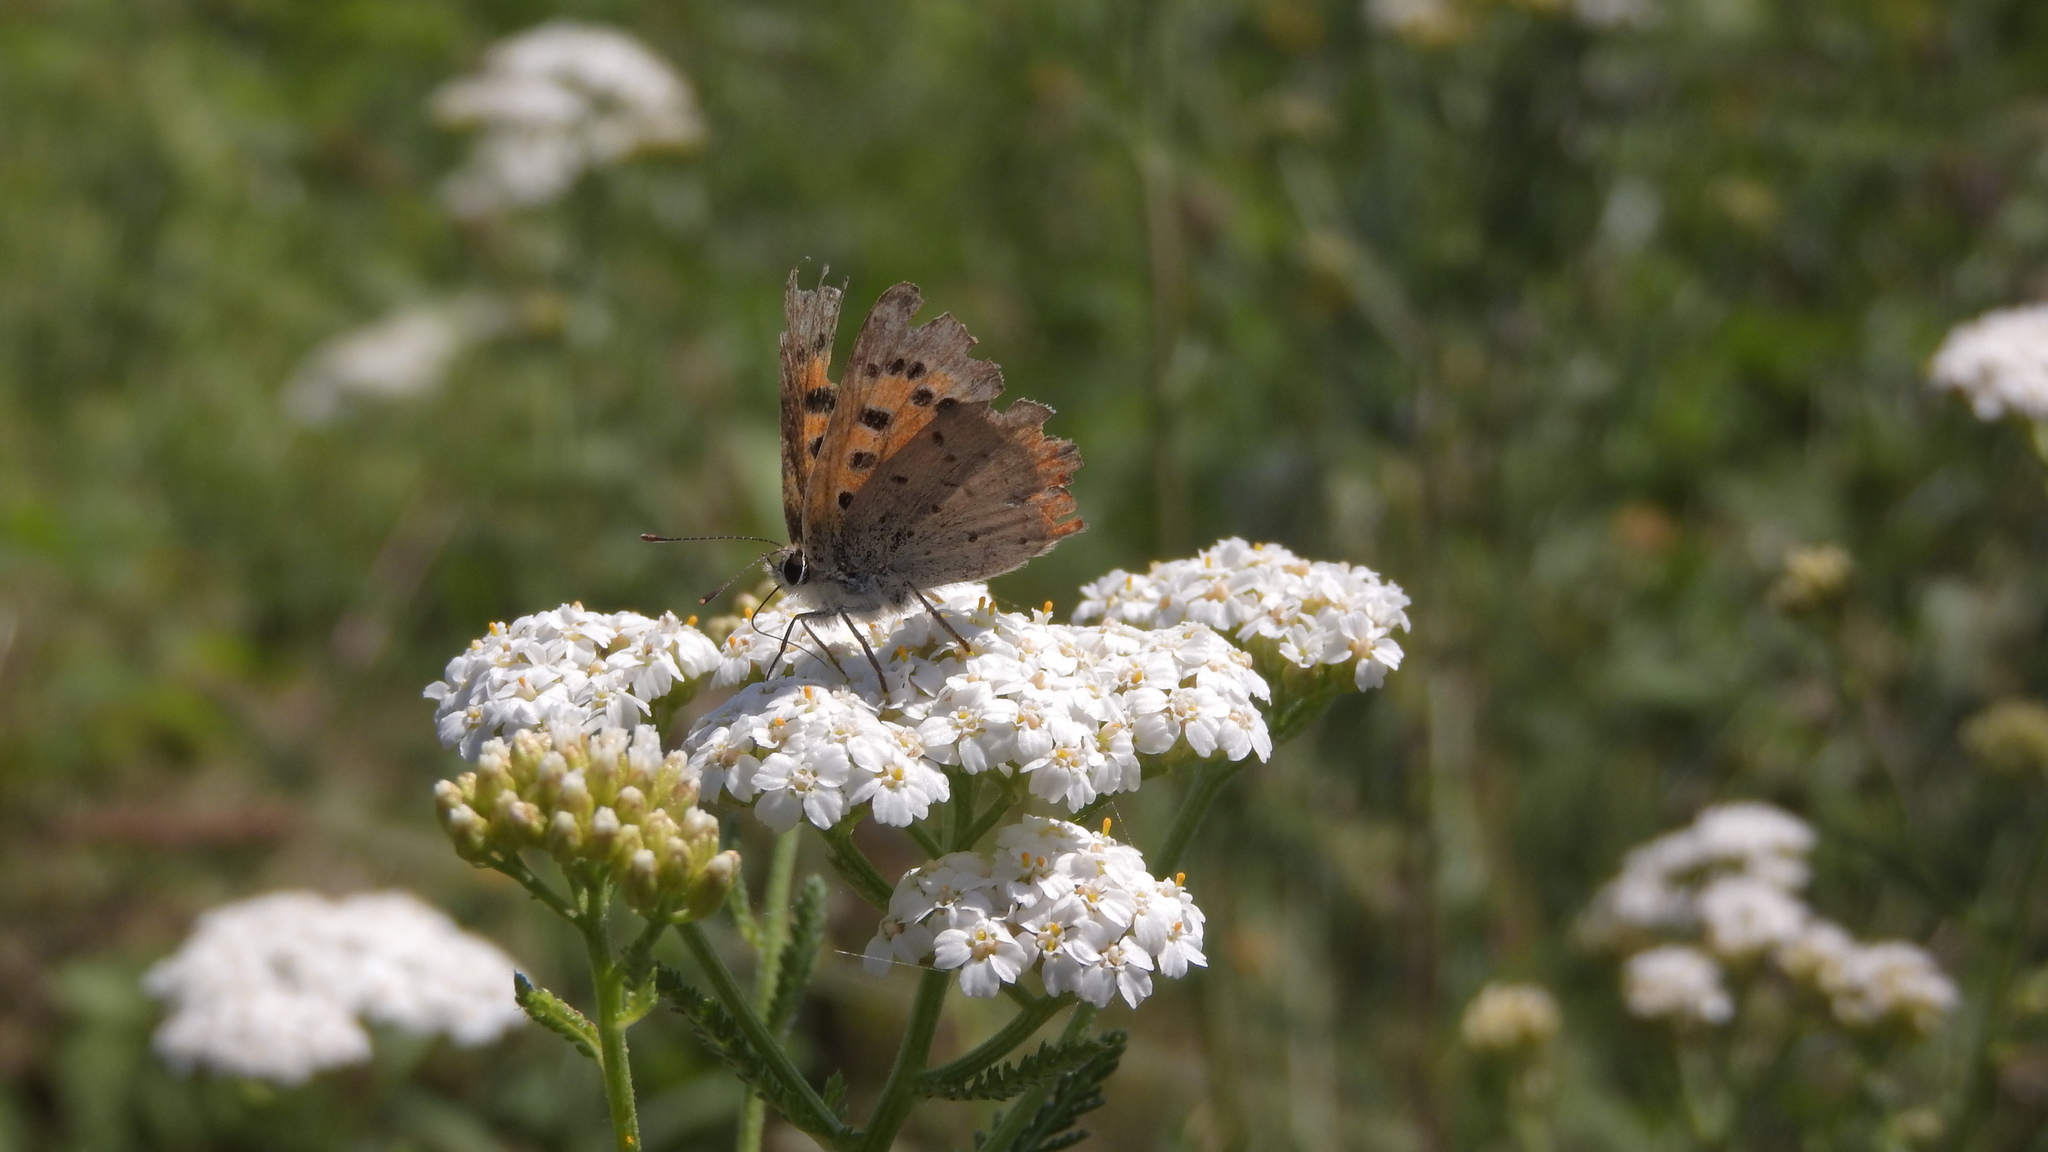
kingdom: Animalia
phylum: Arthropoda
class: Insecta
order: Lepidoptera
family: Lycaenidae
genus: Lycaena
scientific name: Lycaena phlaeas
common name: Small copper
